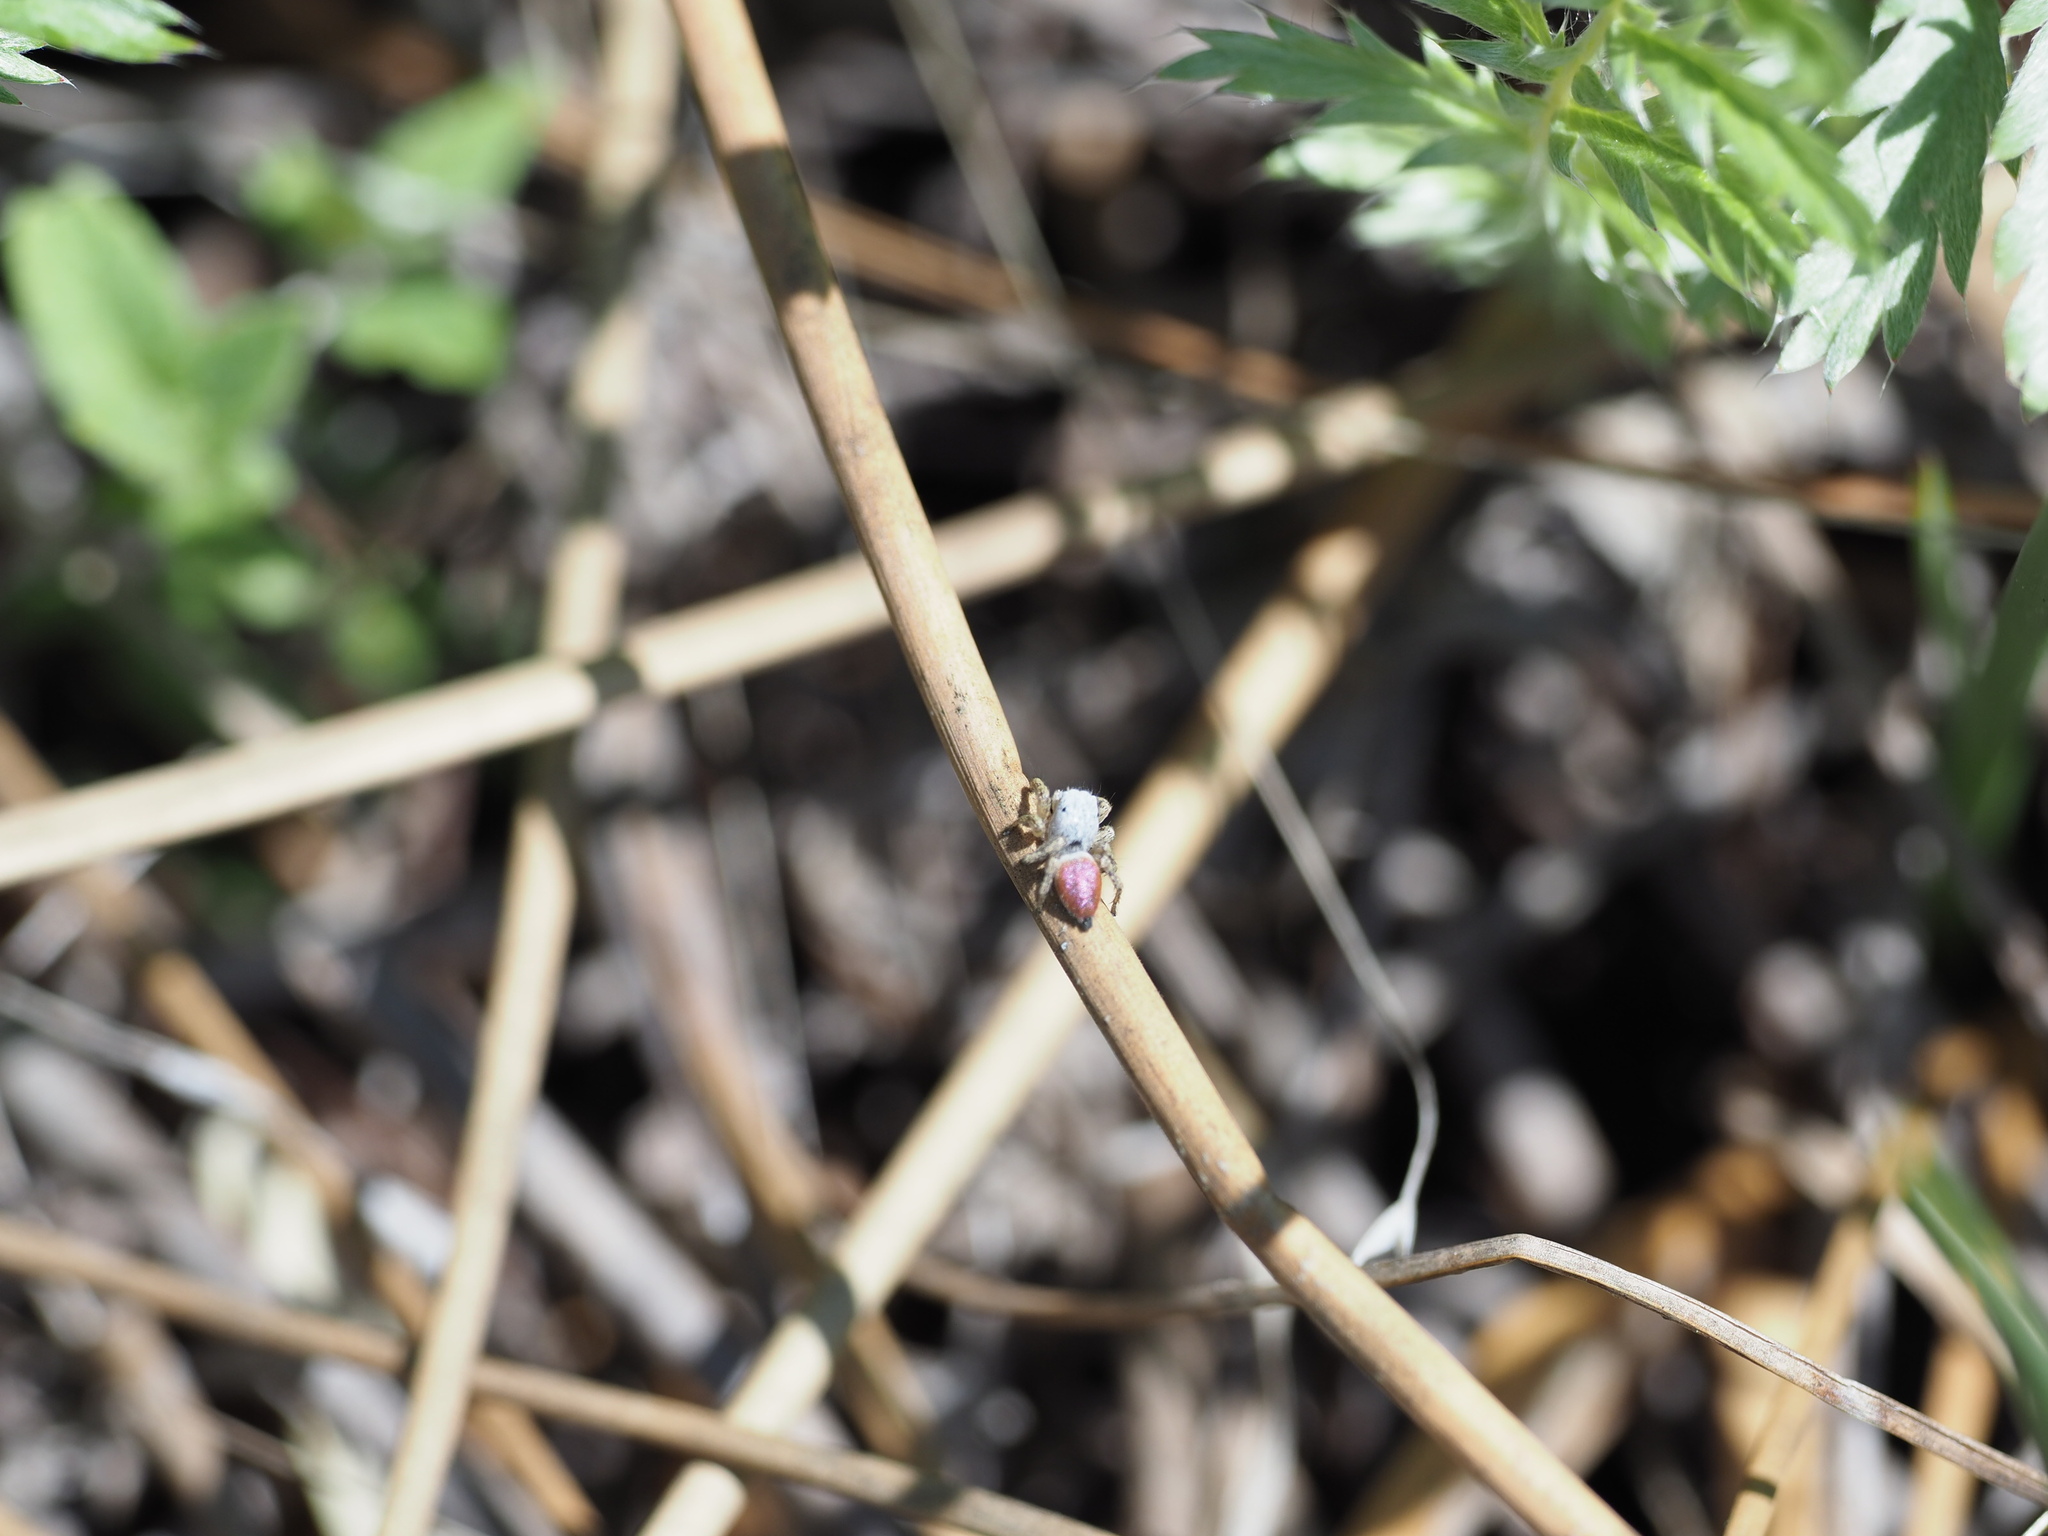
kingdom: Animalia
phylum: Arthropoda
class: Arachnida
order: Araneae
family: Salticidae
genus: Habronattus
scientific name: Habronattus decorus
